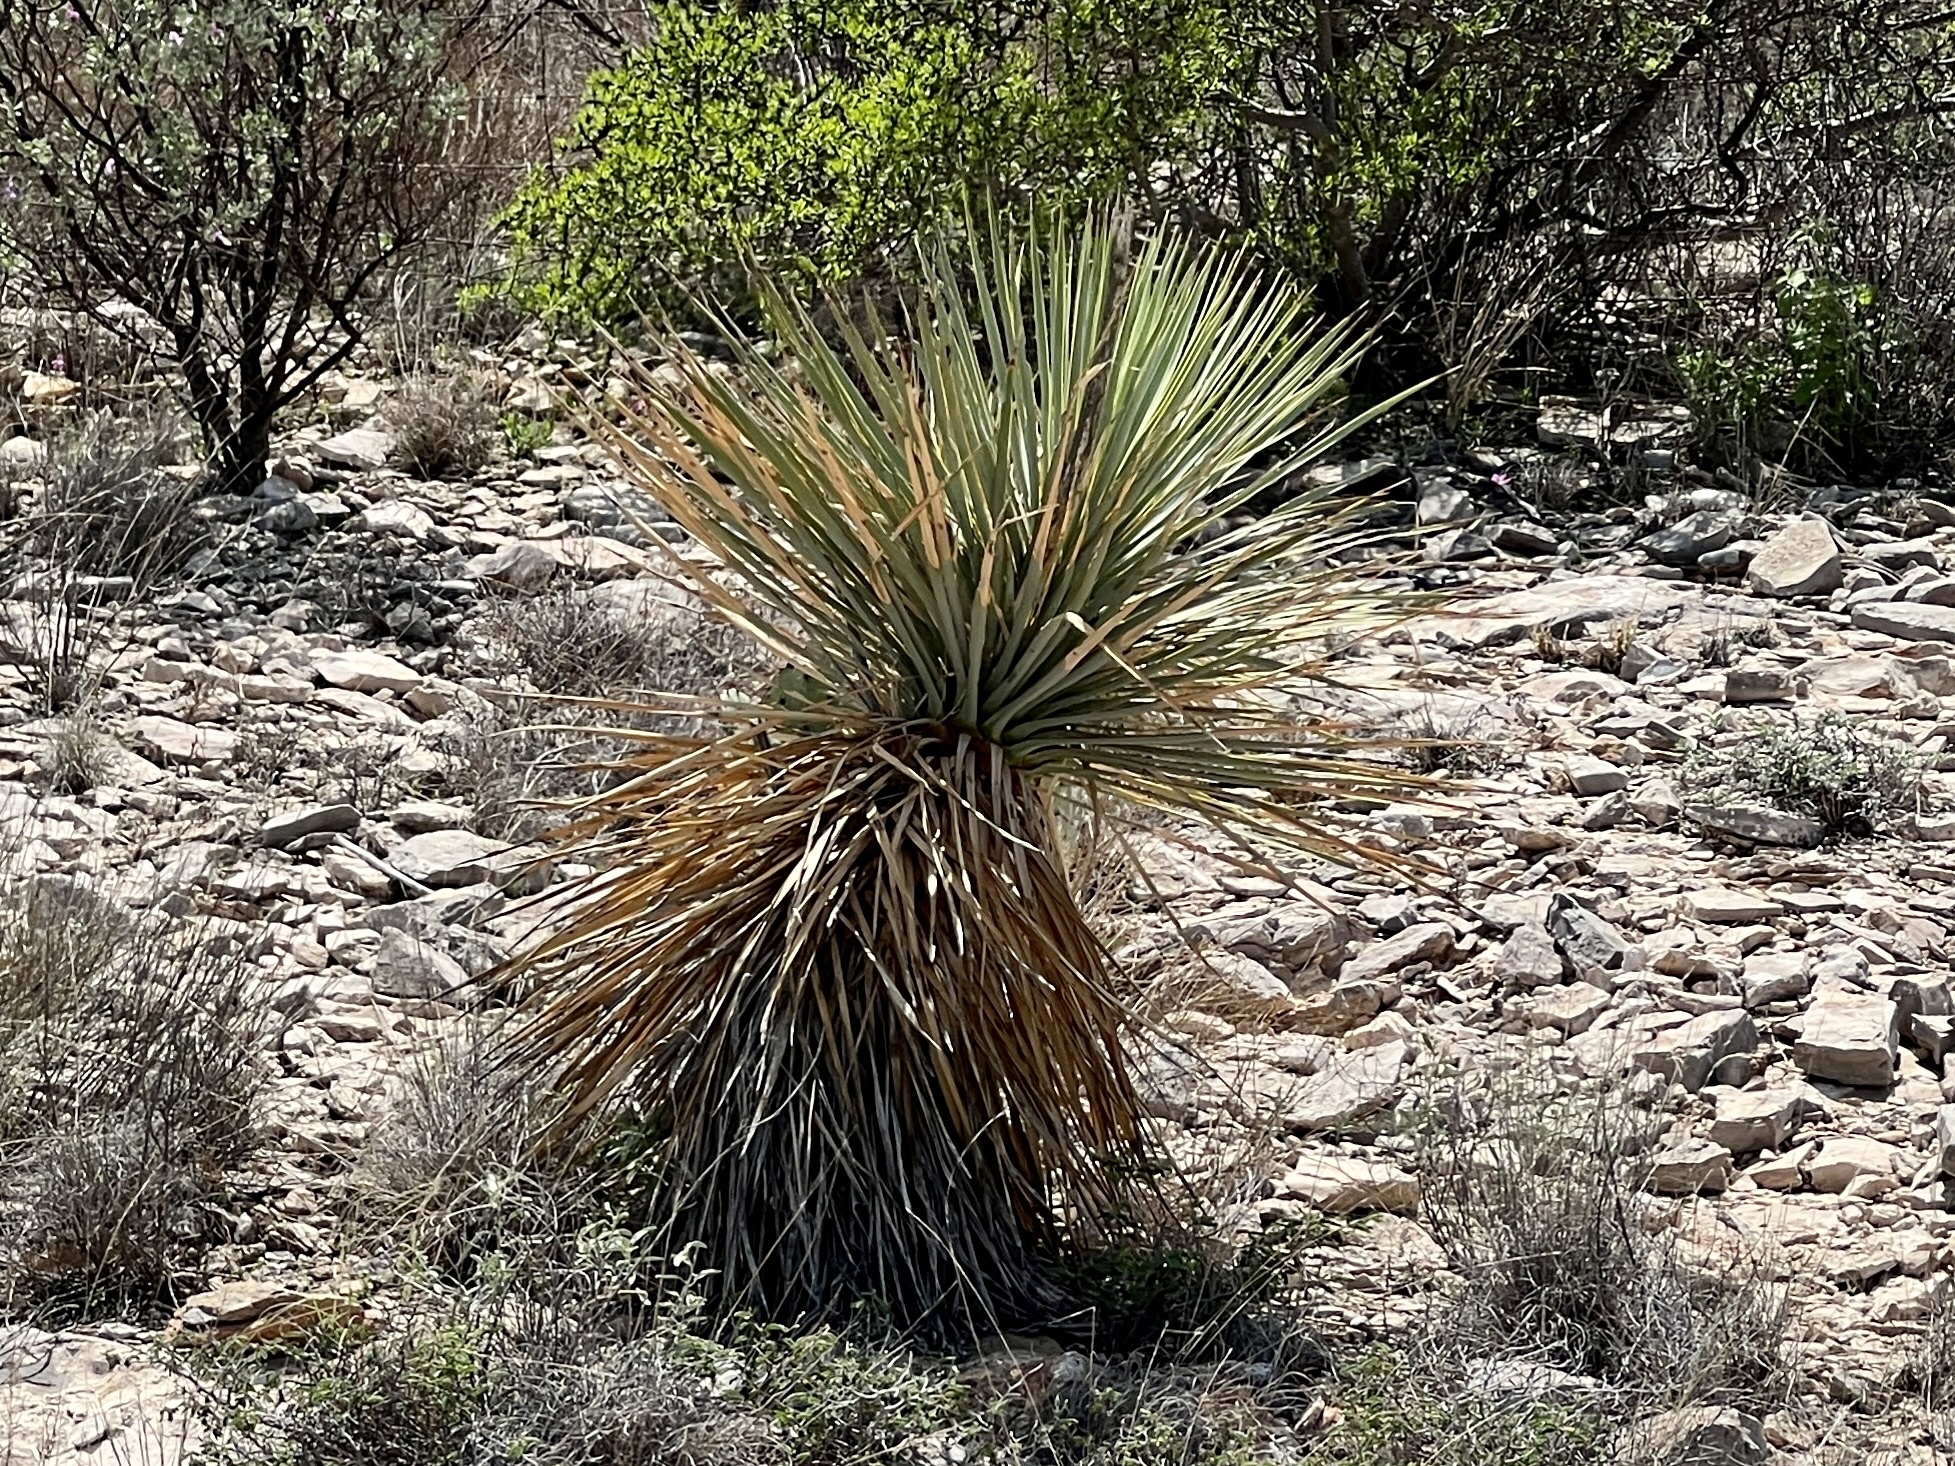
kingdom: Plantae
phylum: Tracheophyta
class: Liliopsida
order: Asparagales
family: Asparagaceae
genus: Yucca
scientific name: Yucca thompsoniana
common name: Trans-pecos yucca
